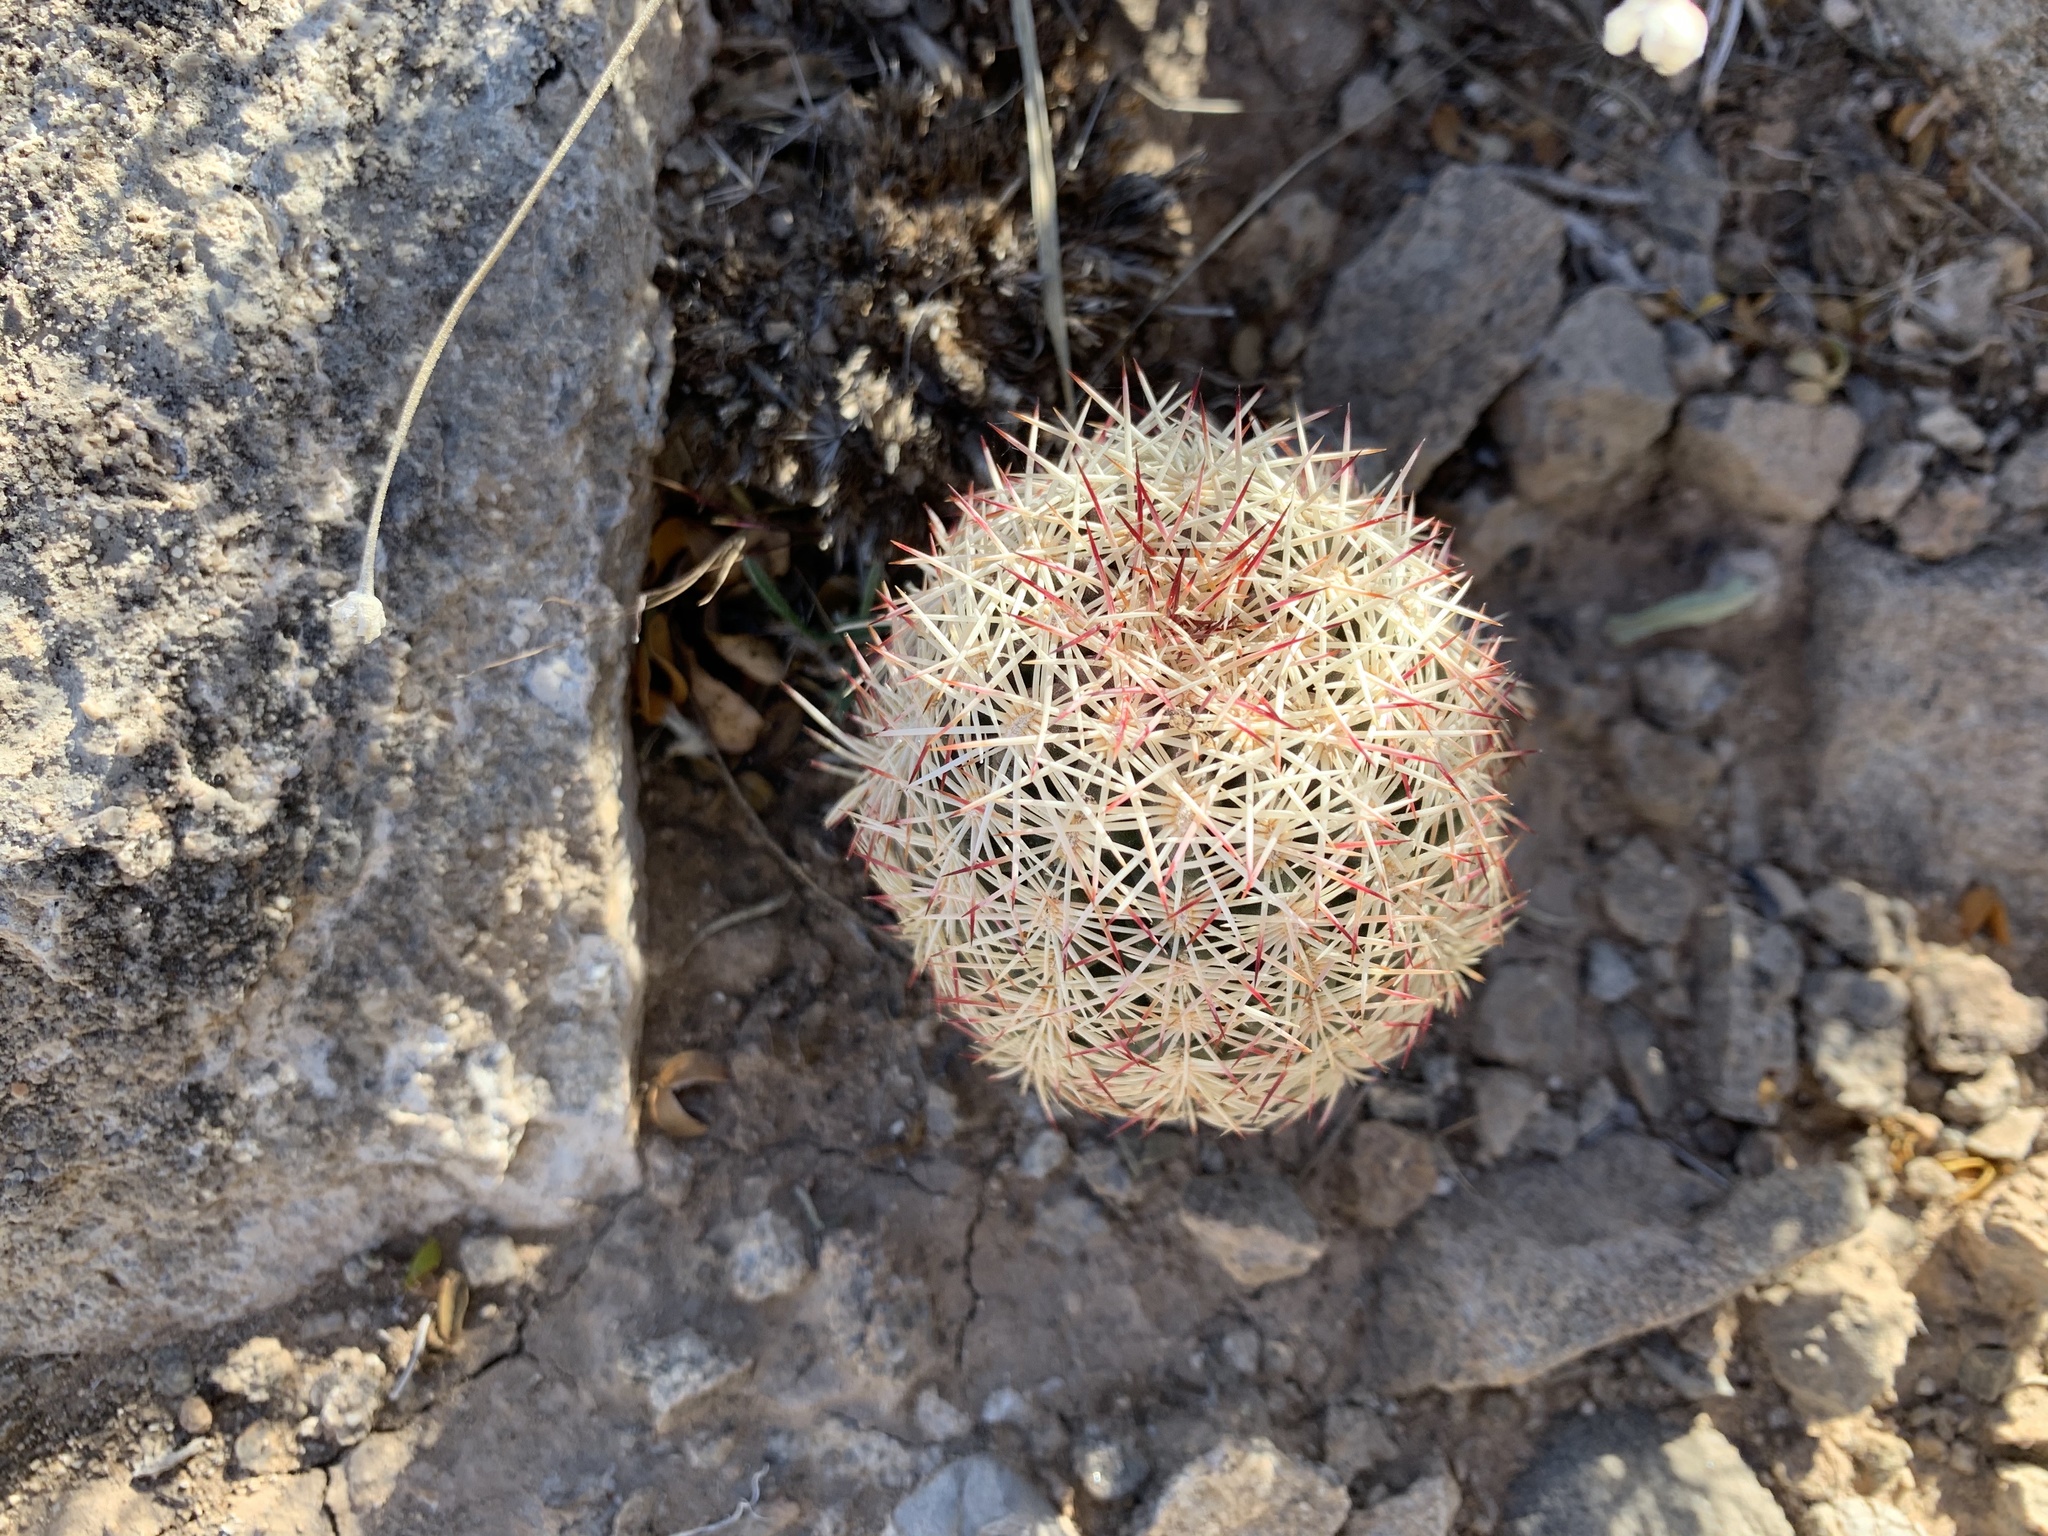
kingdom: Plantae
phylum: Tracheophyta
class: Magnoliopsida
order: Caryophyllales
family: Cactaceae
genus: Echinocereus
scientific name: Echinocereus viridiflorus
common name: Nylon hedgehog cactus
